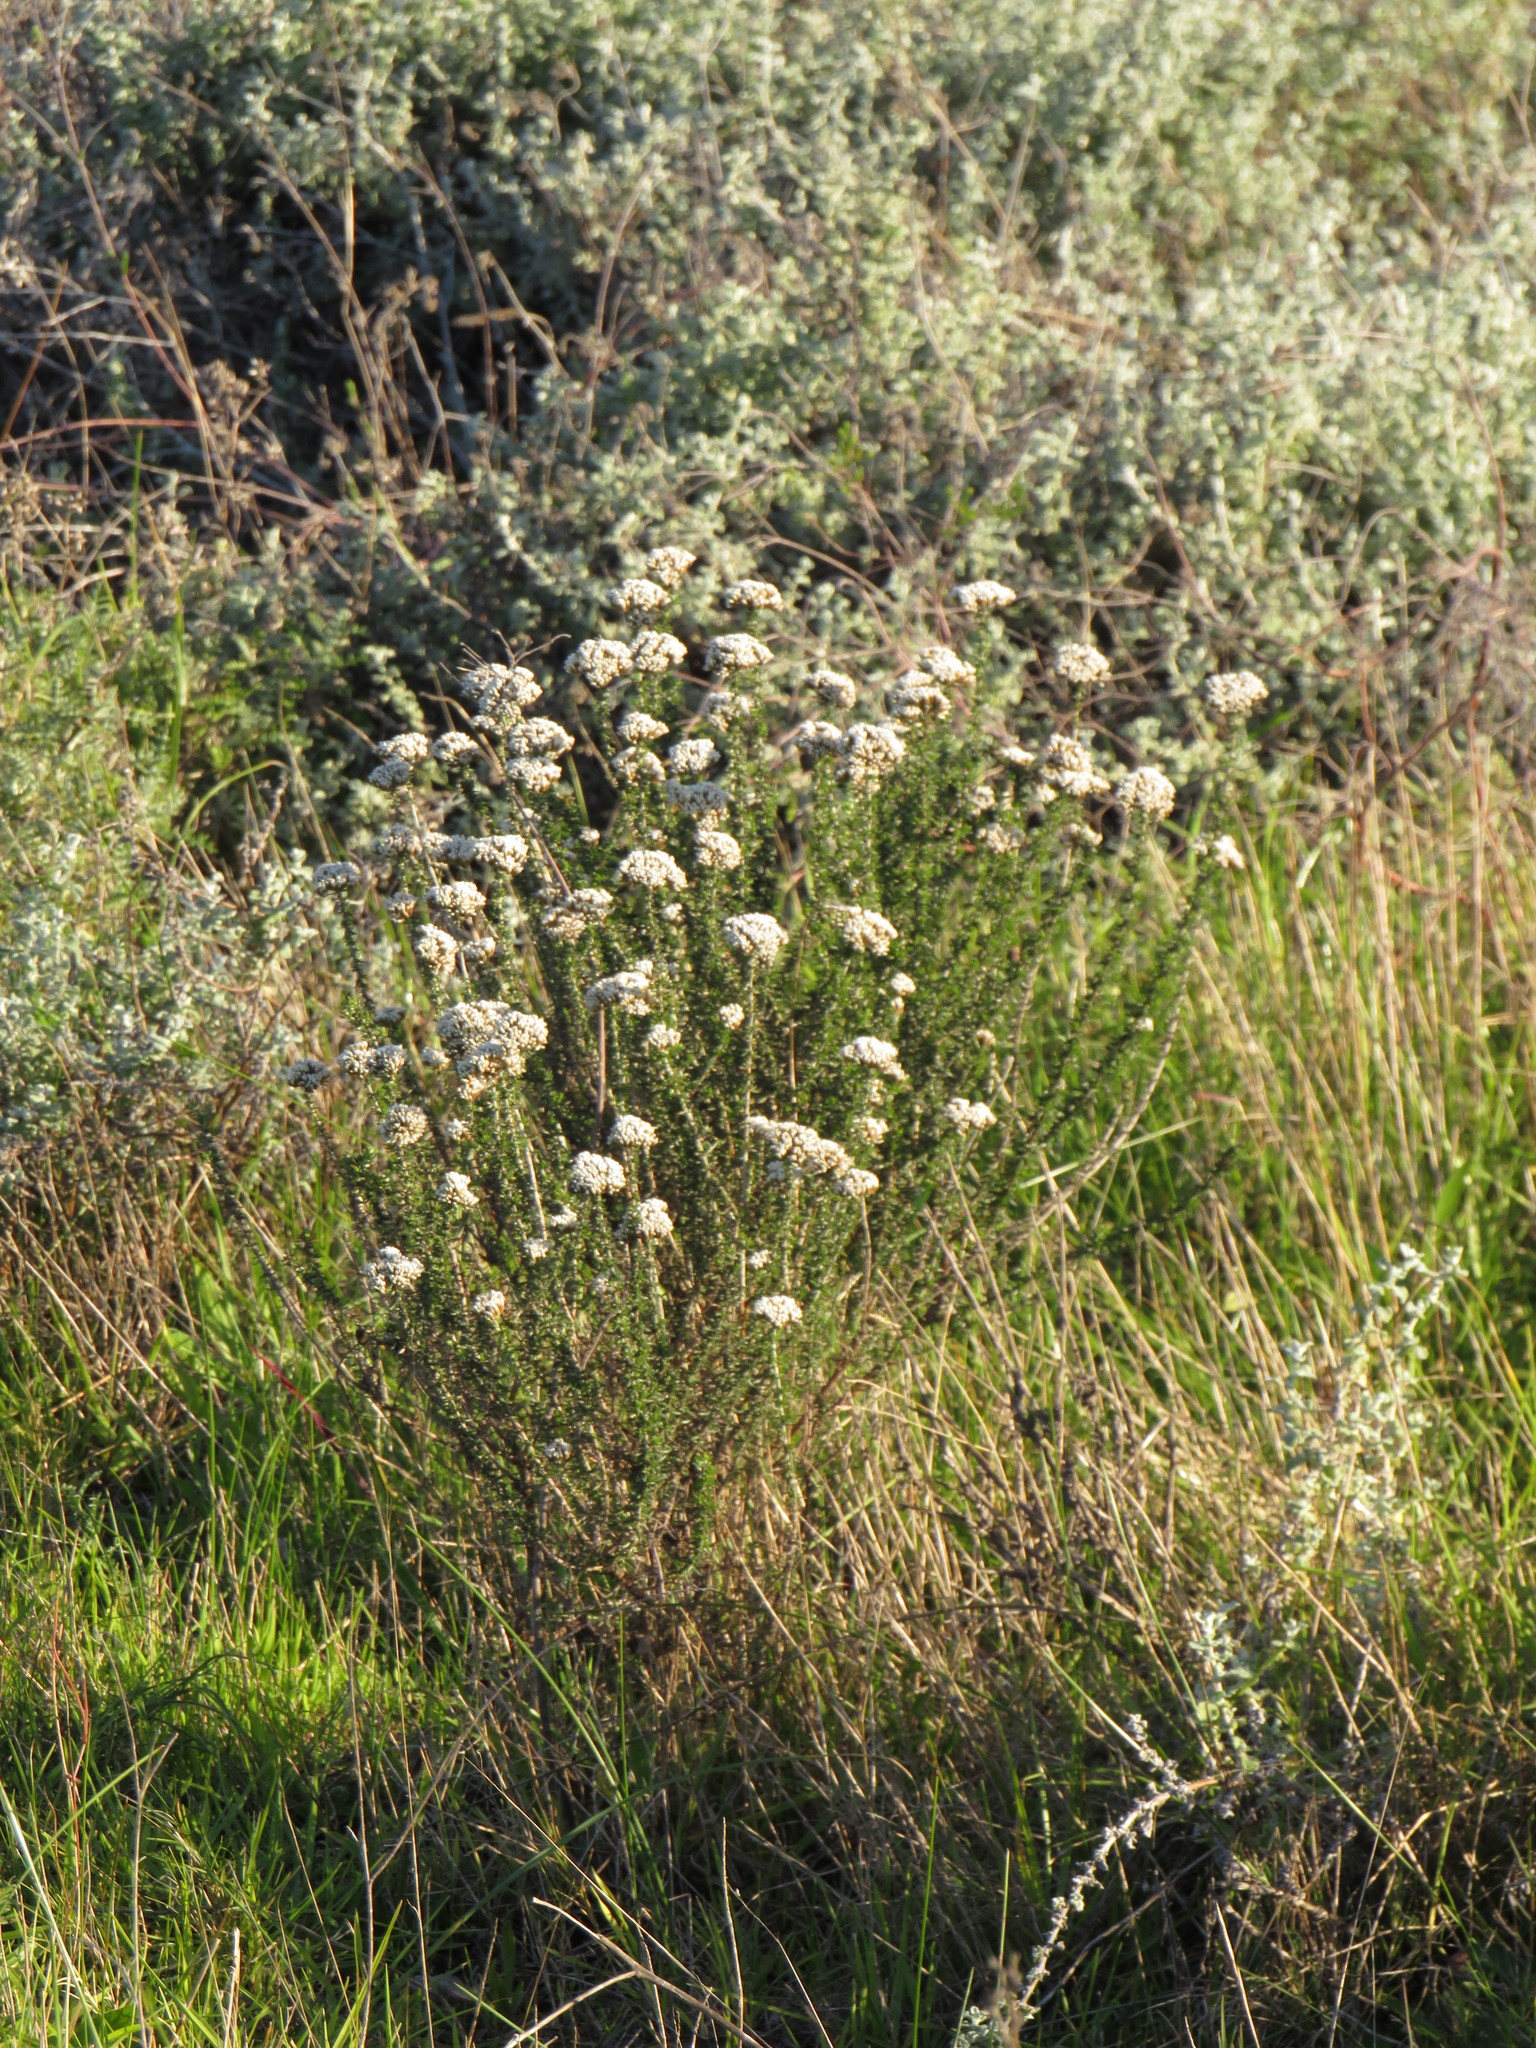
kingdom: Plantae
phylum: Tracheophyta
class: Magnoliopsida
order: Asterales
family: Asteraceae
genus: Metalasia
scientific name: Metalasia densa
